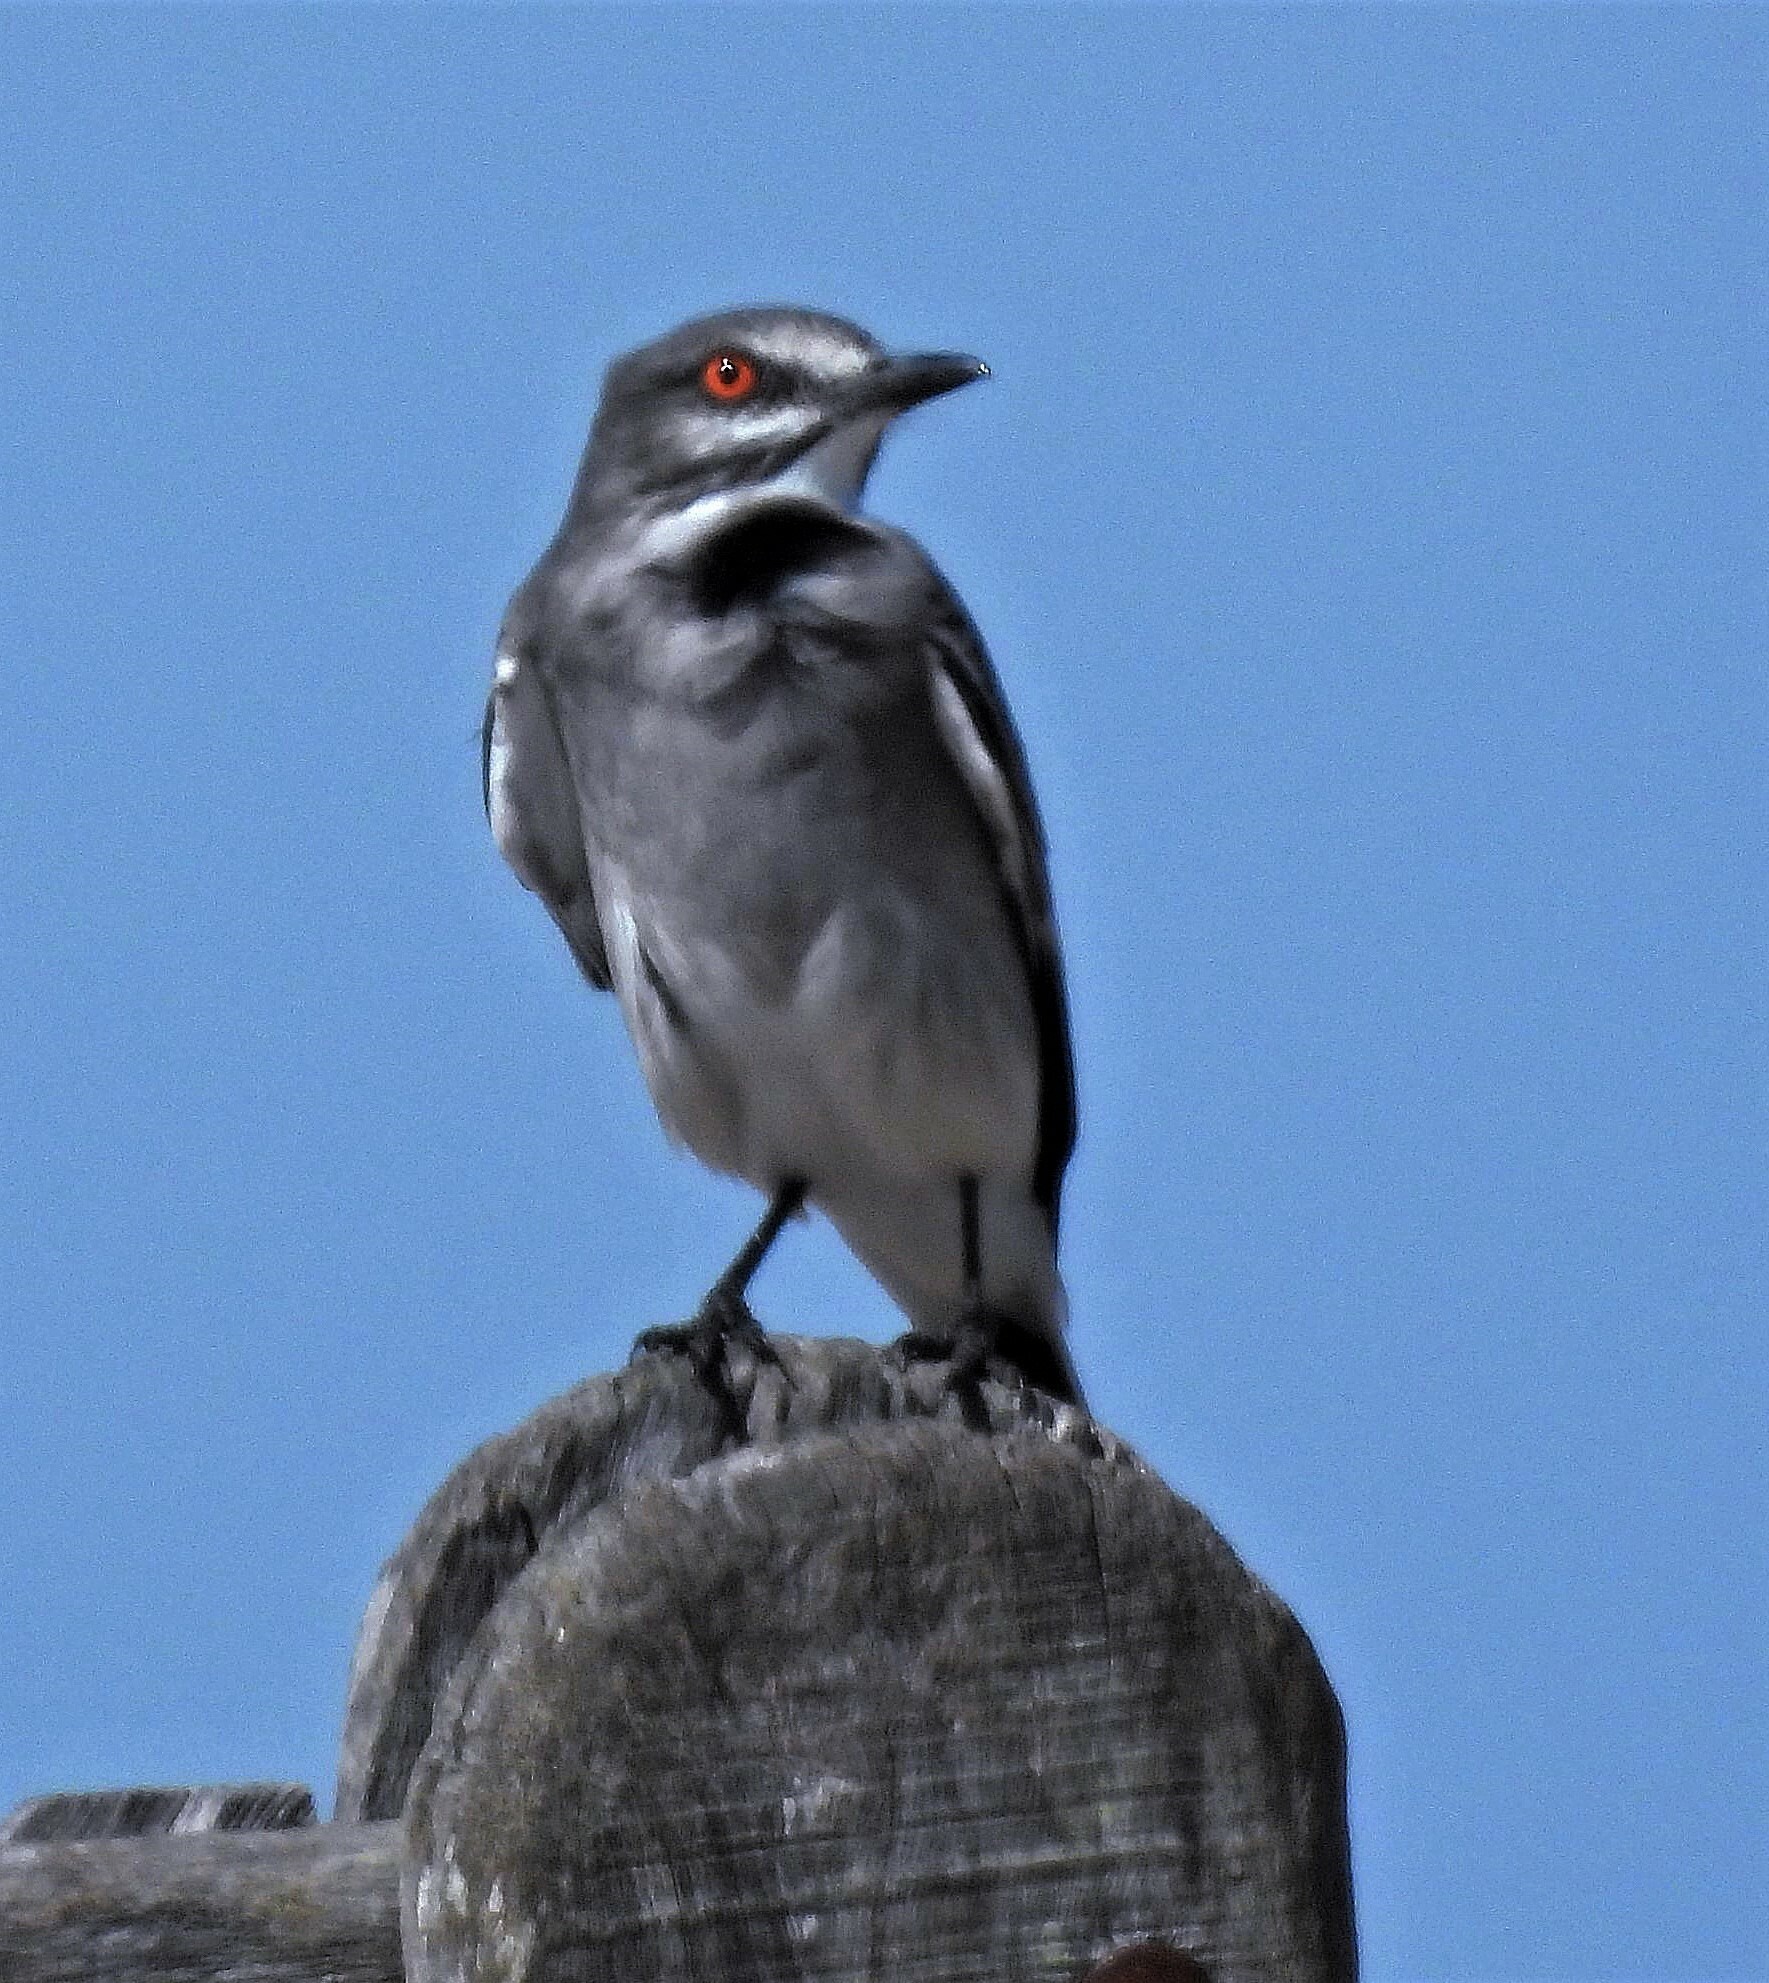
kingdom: Animalia
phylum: Chordata
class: Aves
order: Passeriformes
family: Tyrannidae
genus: Xolmis
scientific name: Xolmis cinereus
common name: Grey monjita
